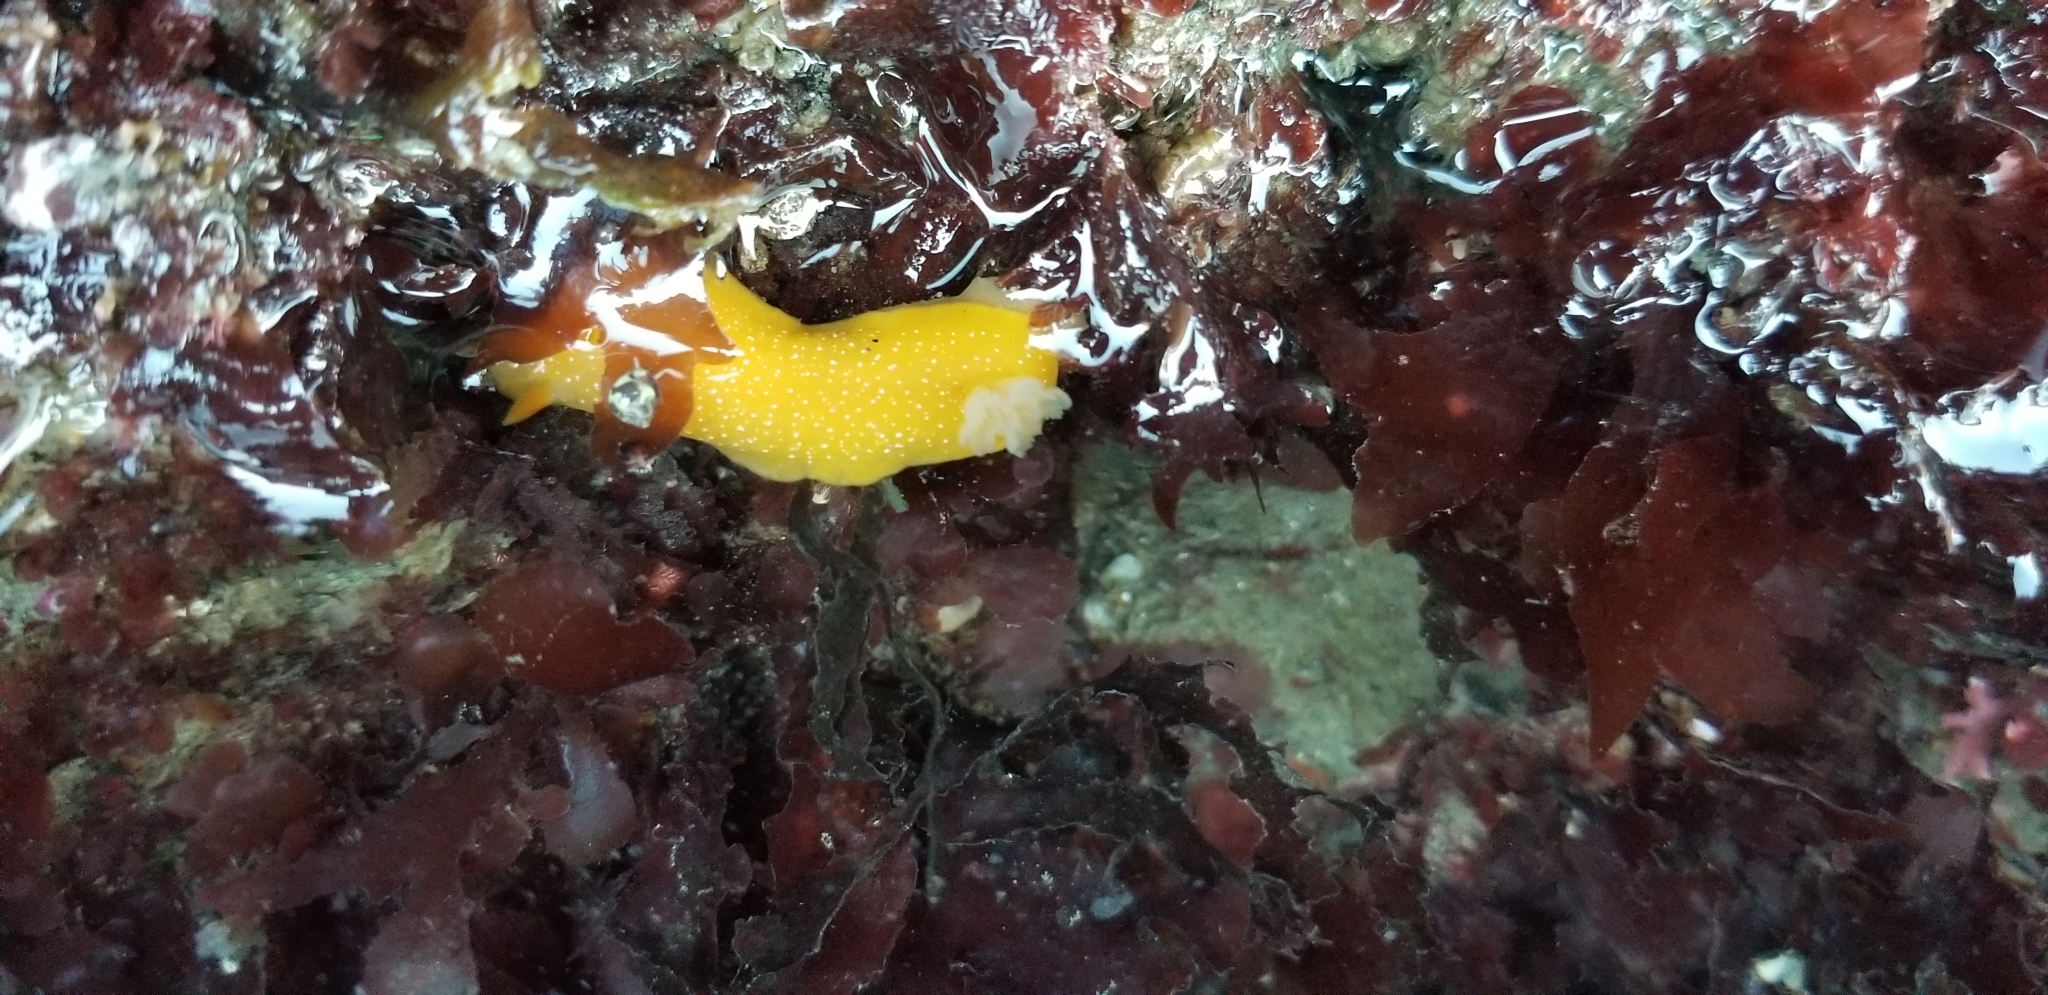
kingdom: Animalia
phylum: Mollusca
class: Gastropoda
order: Nudibranchia
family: Dendrodorididae
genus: Doriopsilla
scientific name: Doriopsilla fulva
